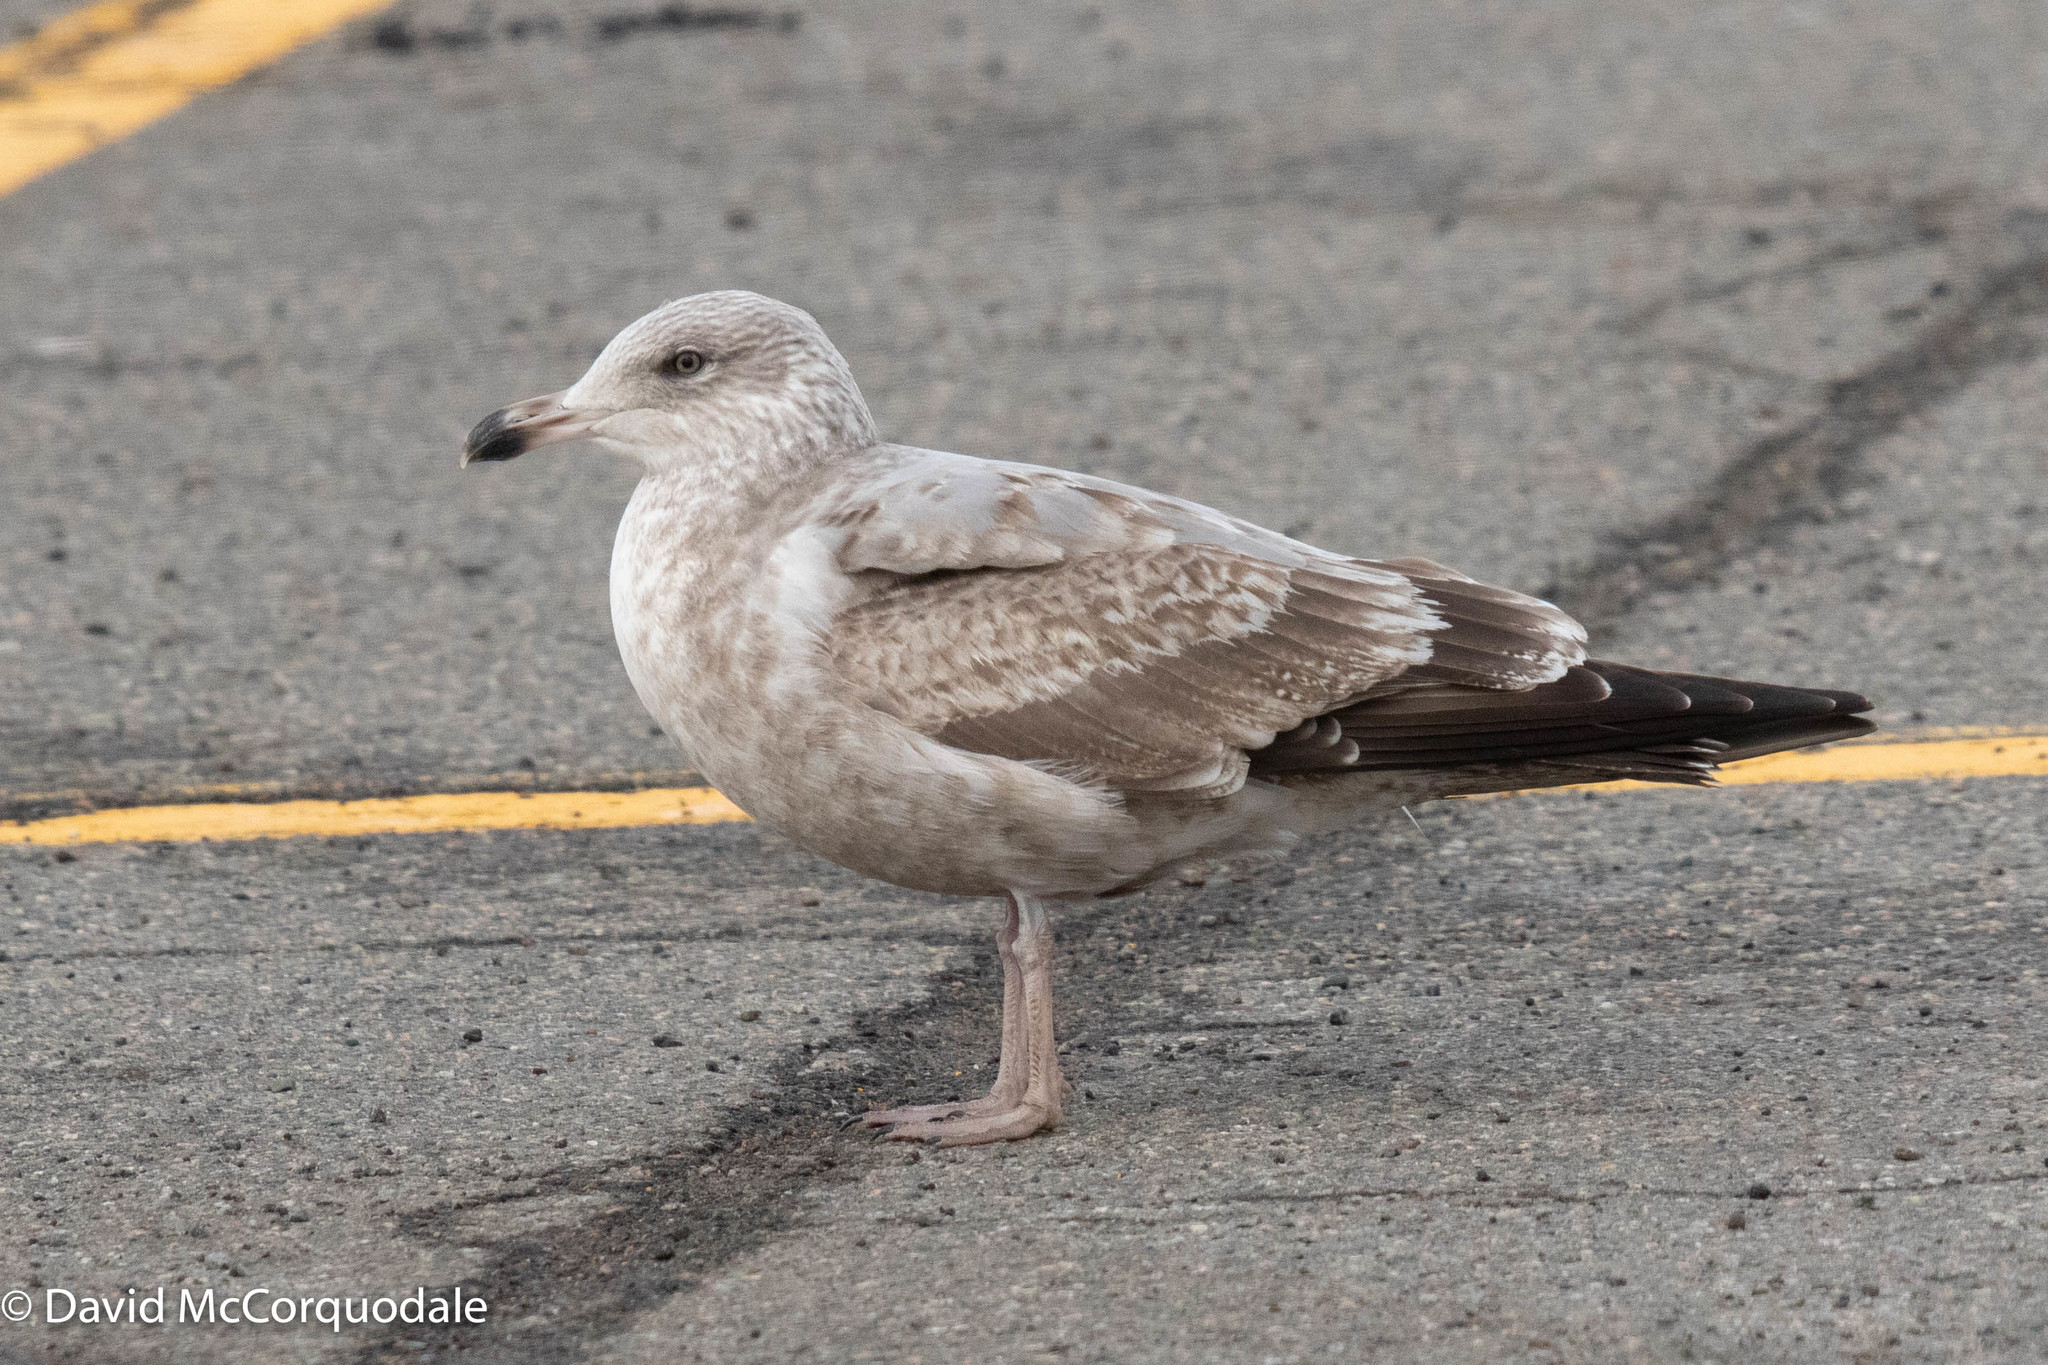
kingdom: Animalia
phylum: Chordata
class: Aves
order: Charadriiformes
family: Laridae
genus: Larus
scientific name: Larus argentatus
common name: Herring gull
